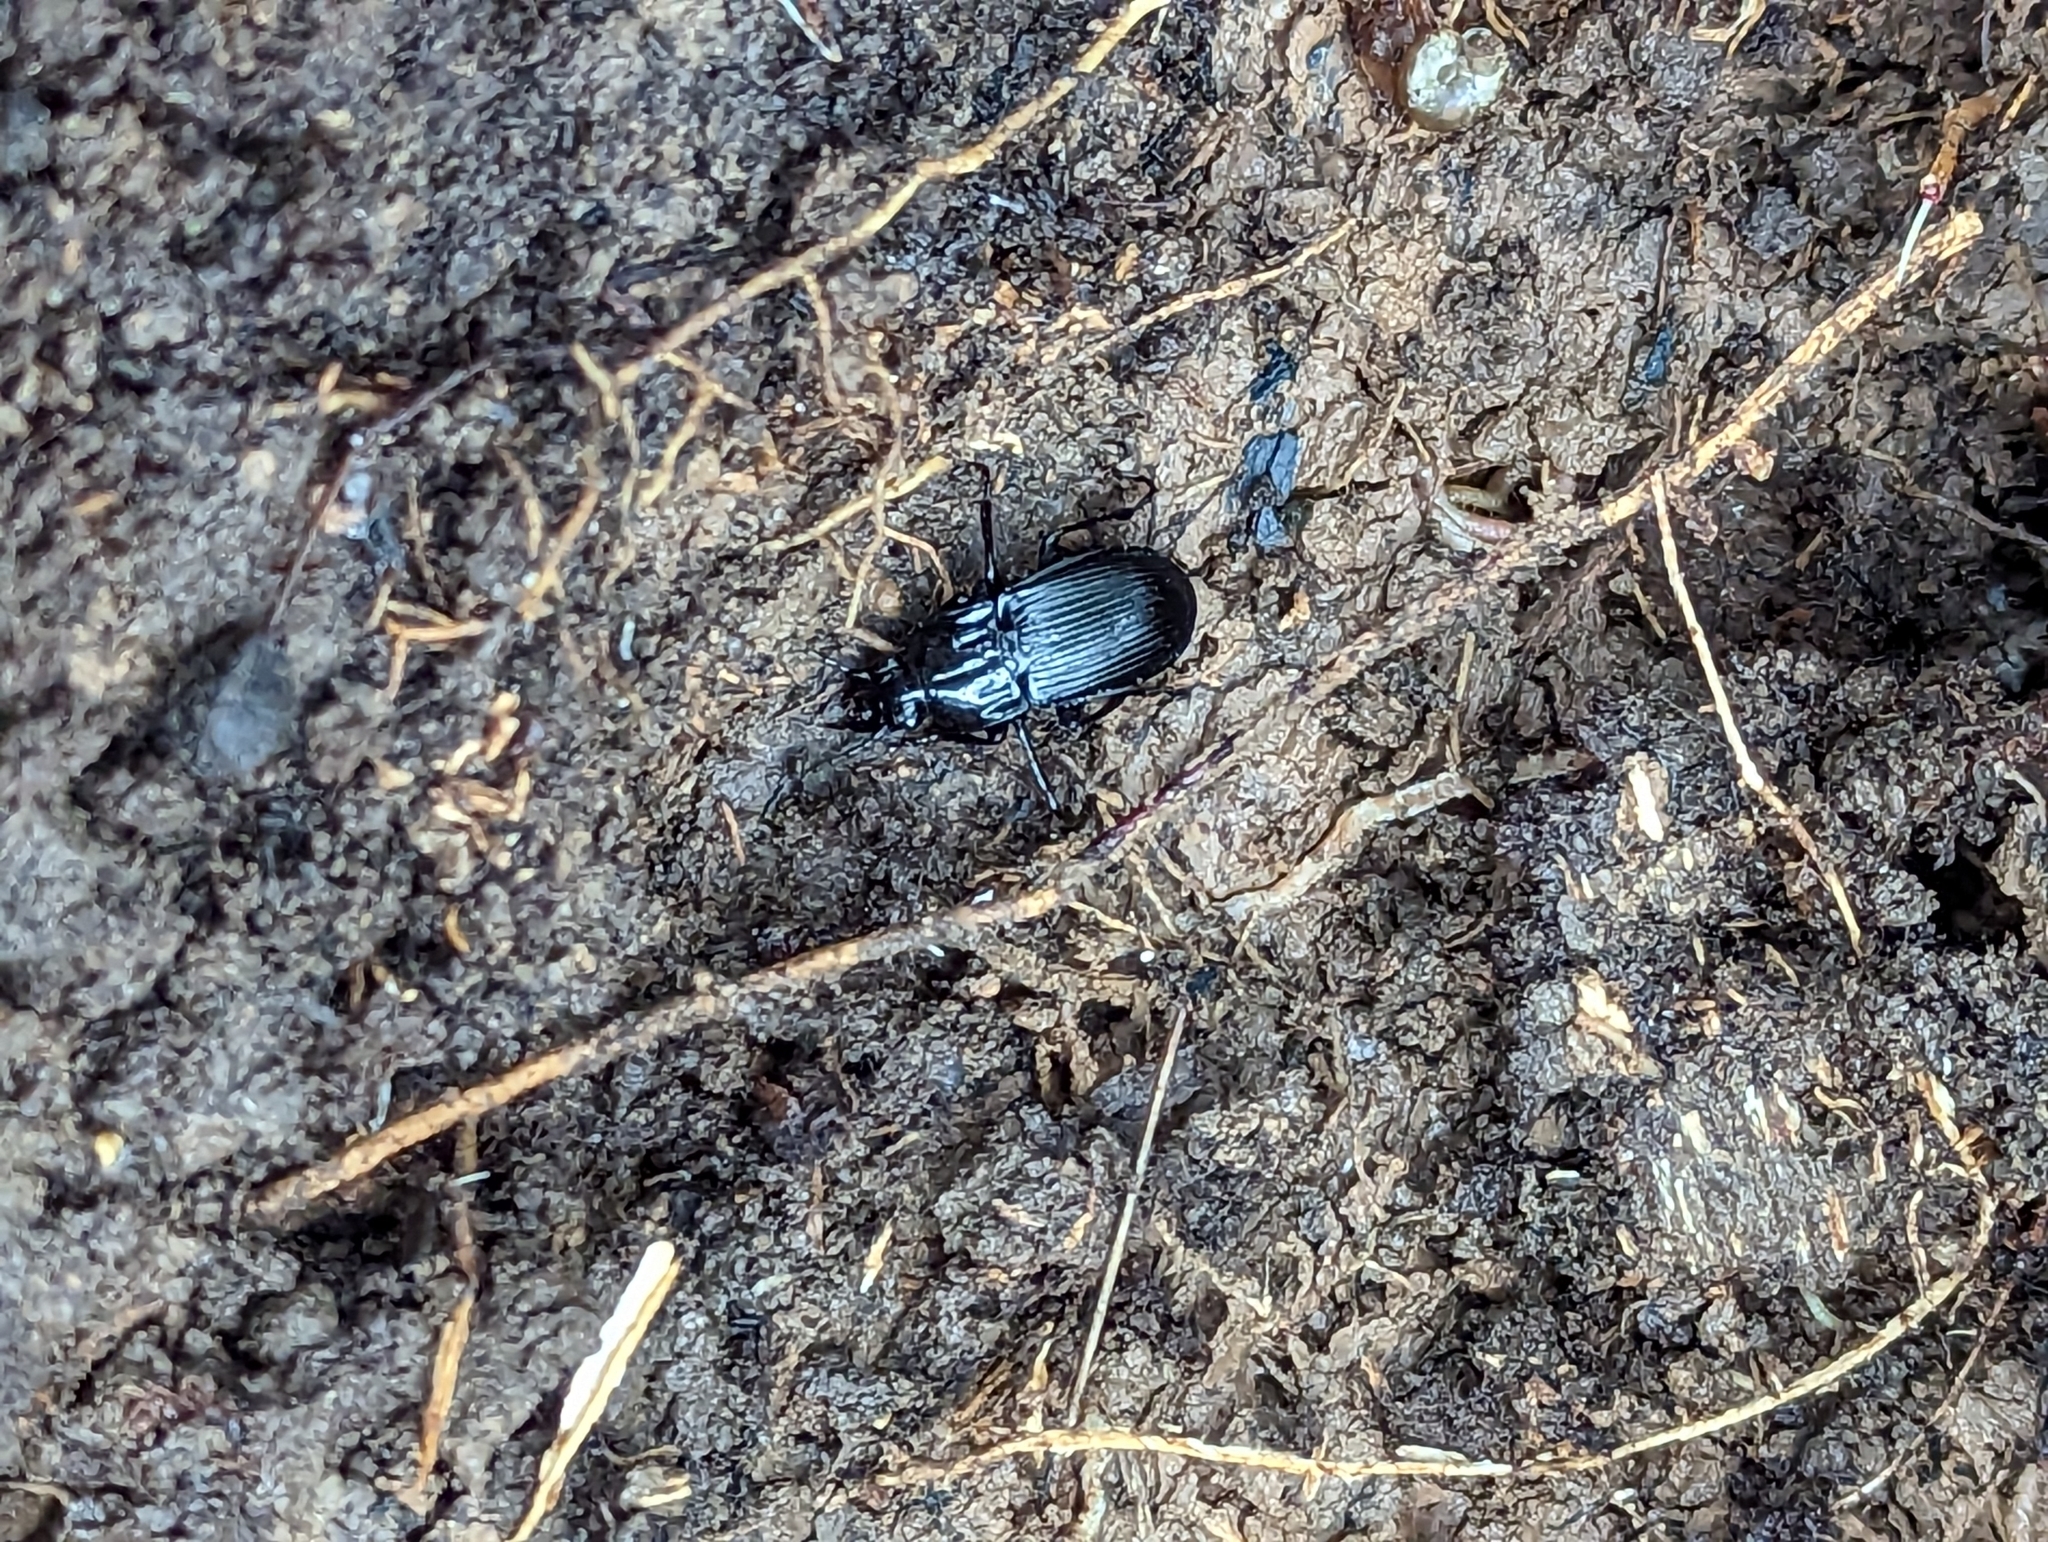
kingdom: Animalia
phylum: Arthropoda
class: Insecta
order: Coleoptera
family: Carabidae
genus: Abax
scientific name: Abax parallelepipedus
